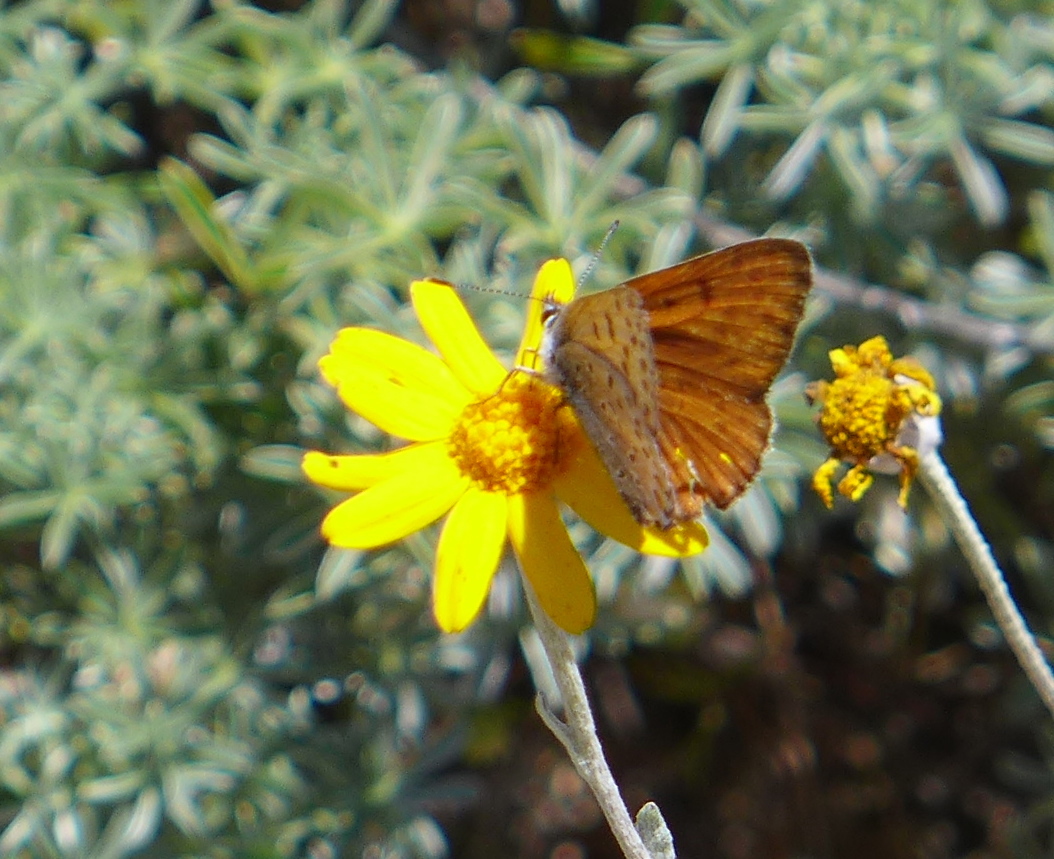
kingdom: Animalia
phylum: Arthropoda
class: Insecta
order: Lepidoptera
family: Lycaenidae
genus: Tharsalea
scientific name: Tharsalea gorgon
